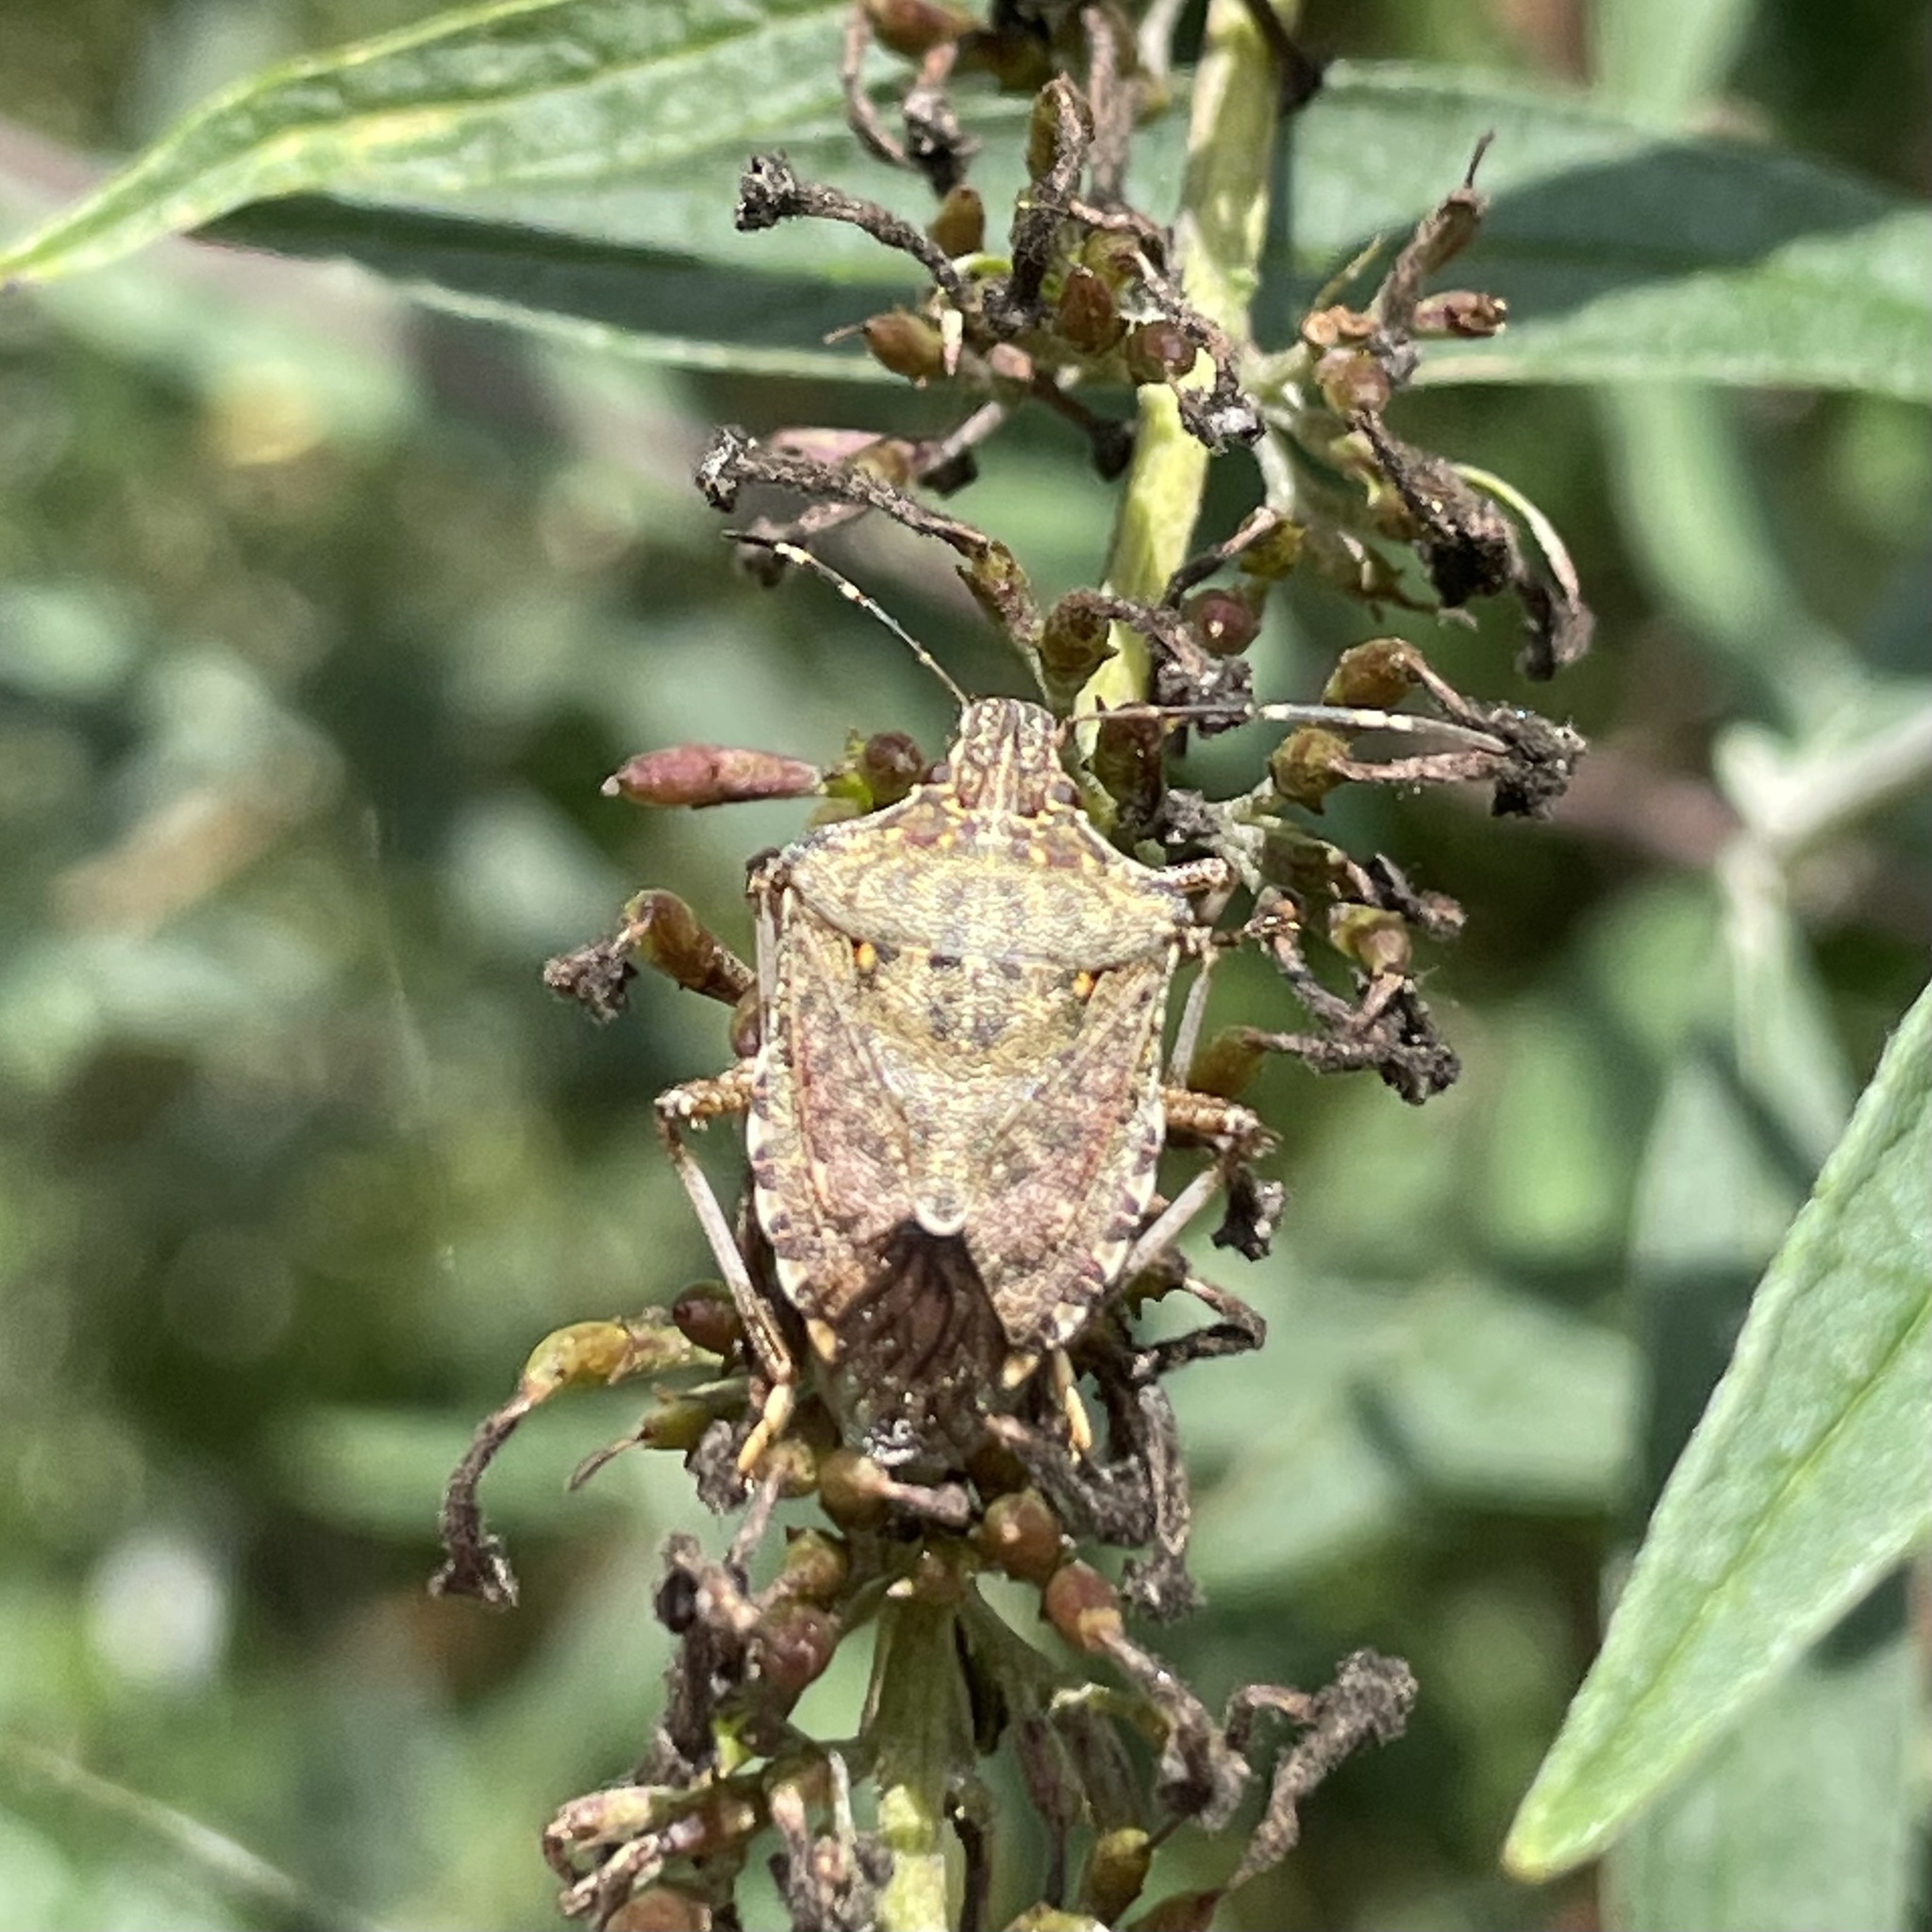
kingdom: Animalia
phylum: Arthropoda
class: Insecta
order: Hemiptera
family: Pentatomidae
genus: Halyomorpha
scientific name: Halyomorpha halys
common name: Brown marmorated stink bug
